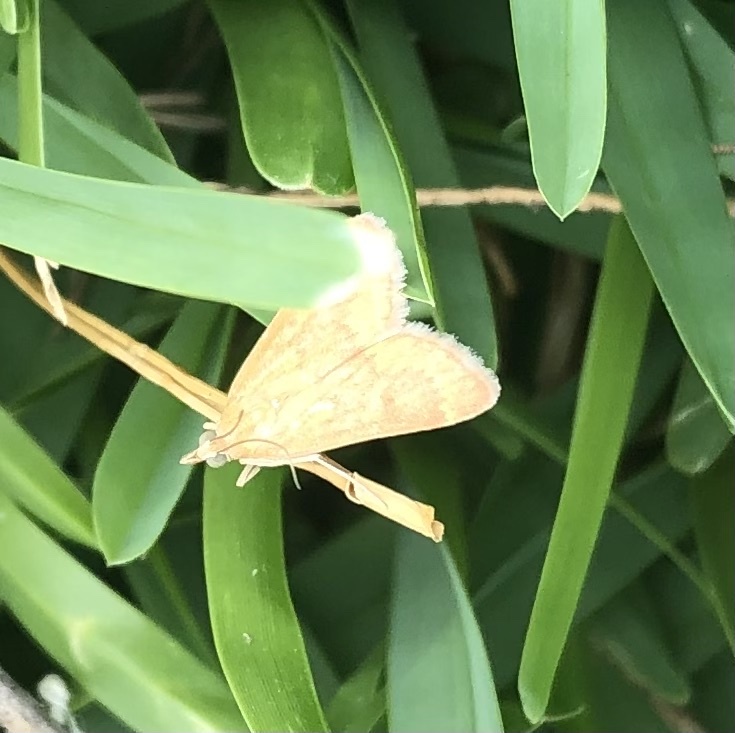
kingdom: Animalia
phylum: Arthropoda
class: Insecta
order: Lepidoptera
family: Crambidae
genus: Achyra
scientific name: Achyra rantalis
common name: Garden webworm
